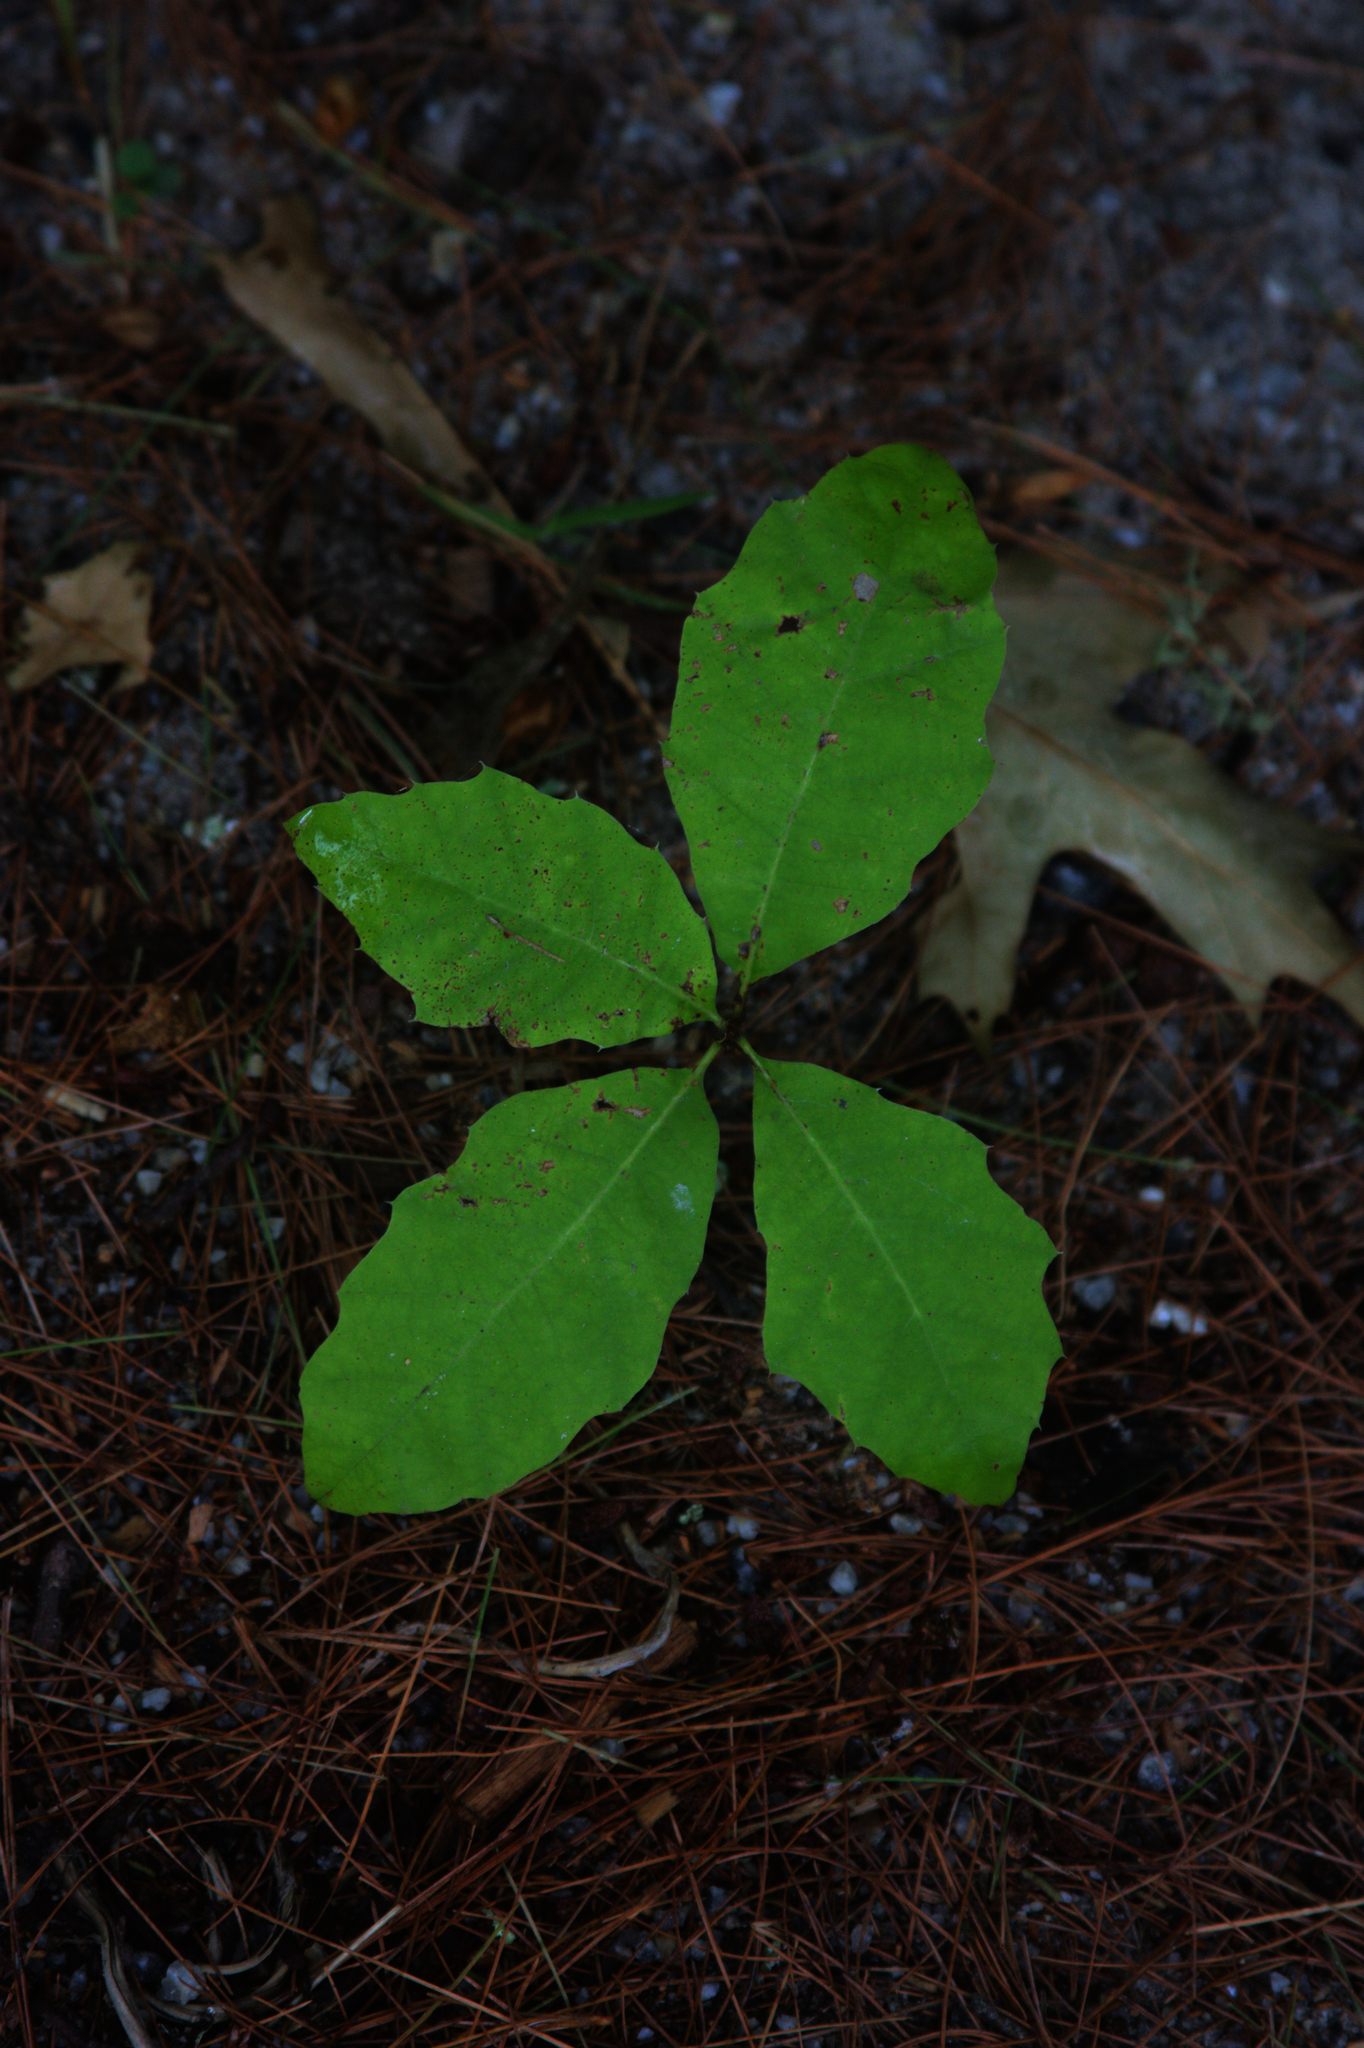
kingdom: Plantae
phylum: Tracheophyta
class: Magnoliopsida
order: Fagales
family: Fagaceae
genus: Quercus
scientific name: Quercus rubra
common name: Red oak
